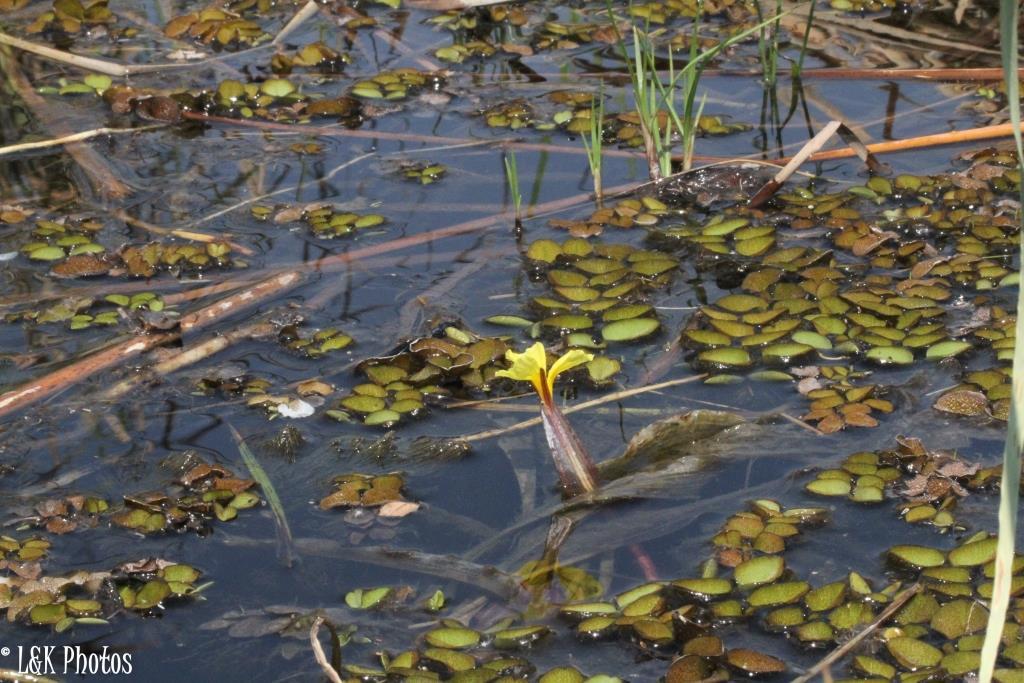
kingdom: Plantae
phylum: Tracheophyta
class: Liliopsida
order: Alismatales
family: Hydrocharitaceae
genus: Ottelia
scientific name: Ottelia ulvifolia
